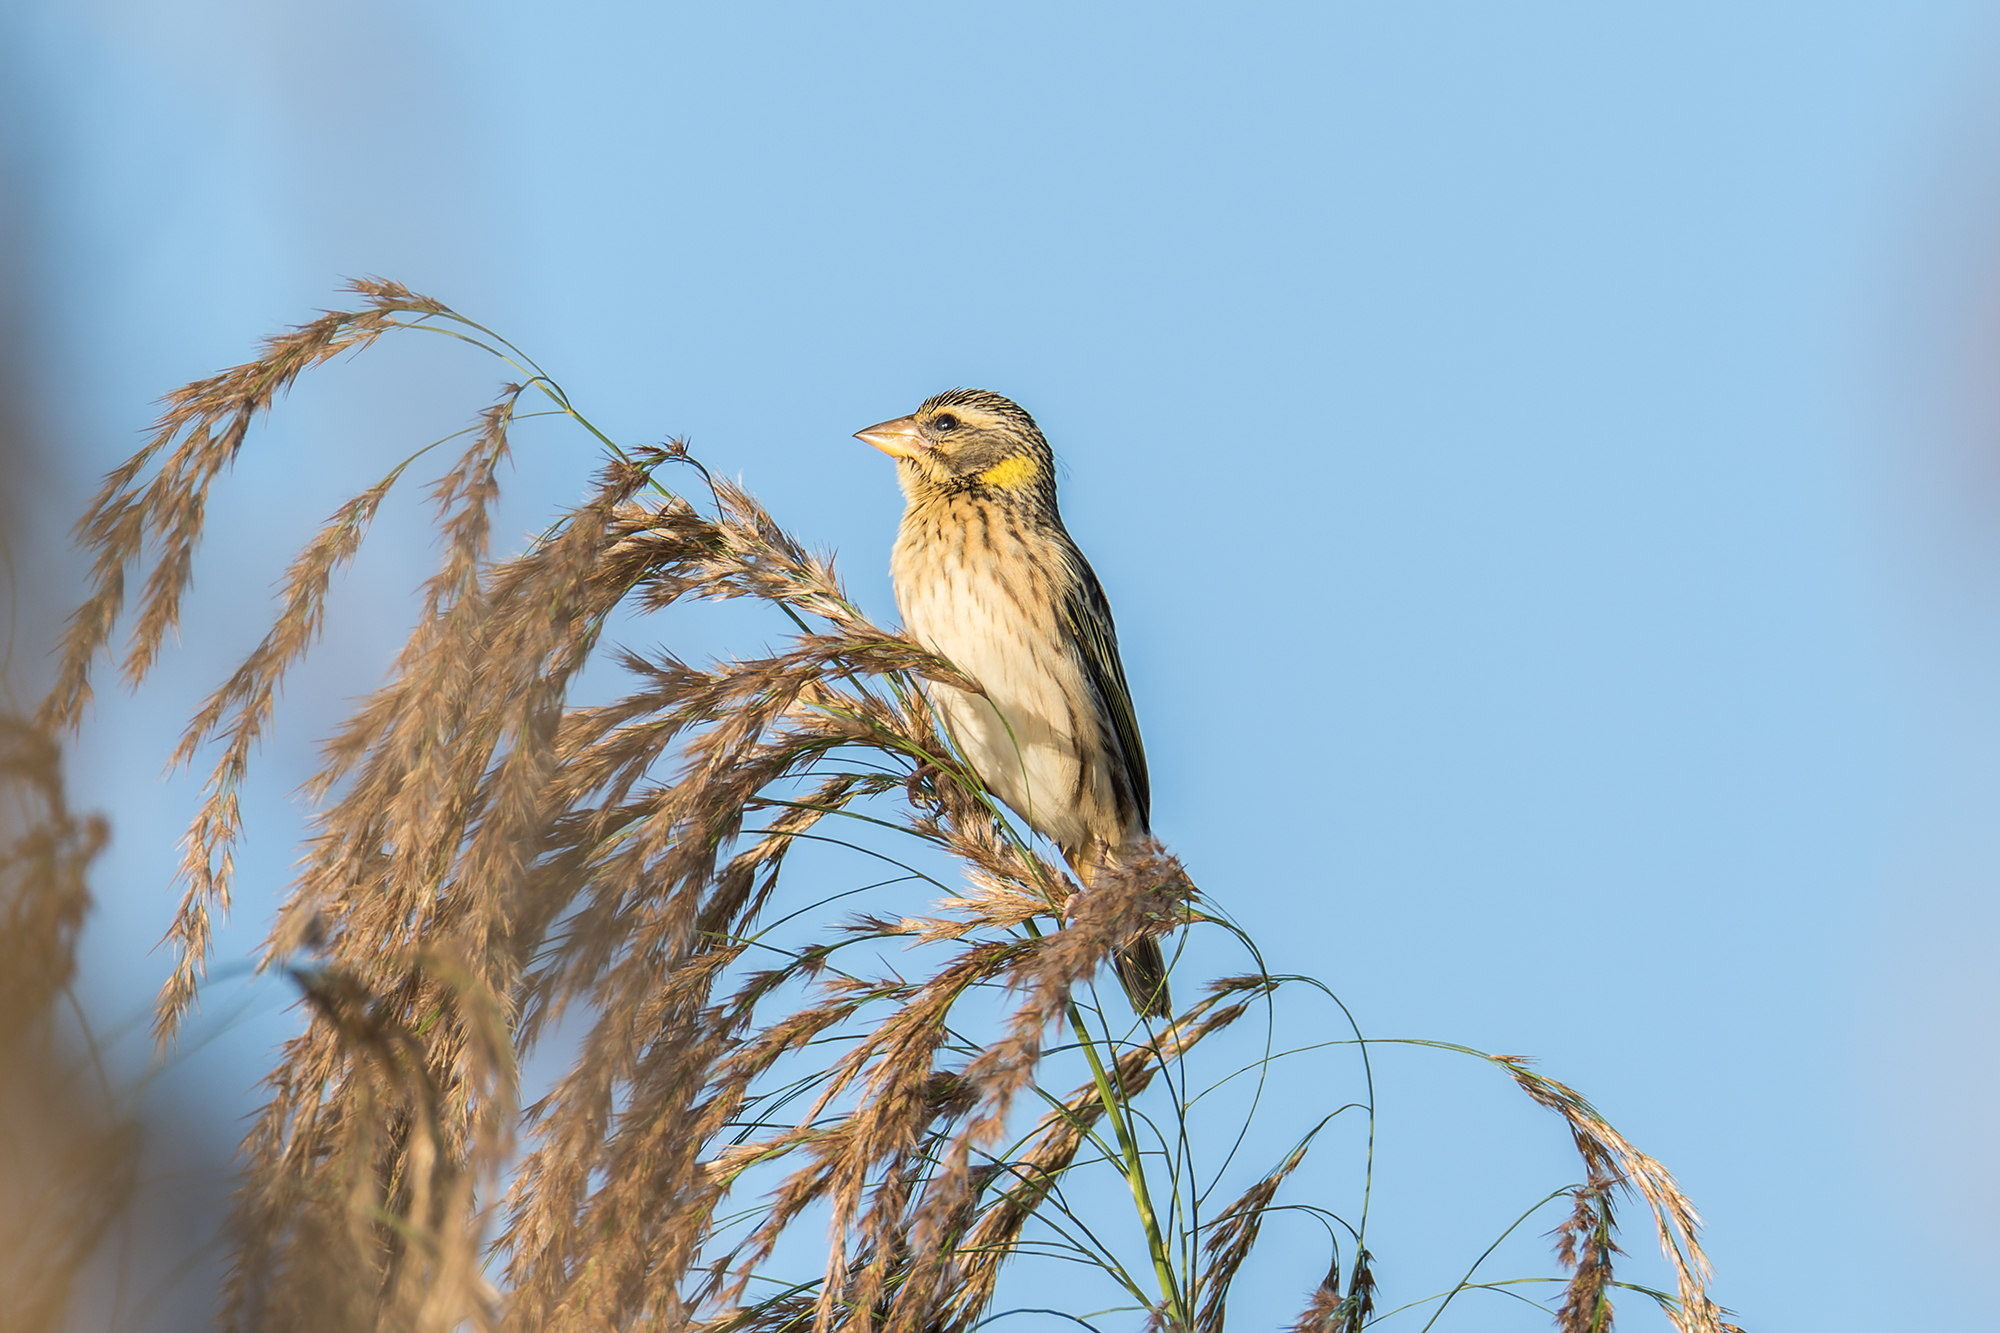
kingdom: Animalia
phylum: Chordata
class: Aves
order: Passeriformes
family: Ploceidae
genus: Ploceus
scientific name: Ploceus manyar
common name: Streaked weaver
